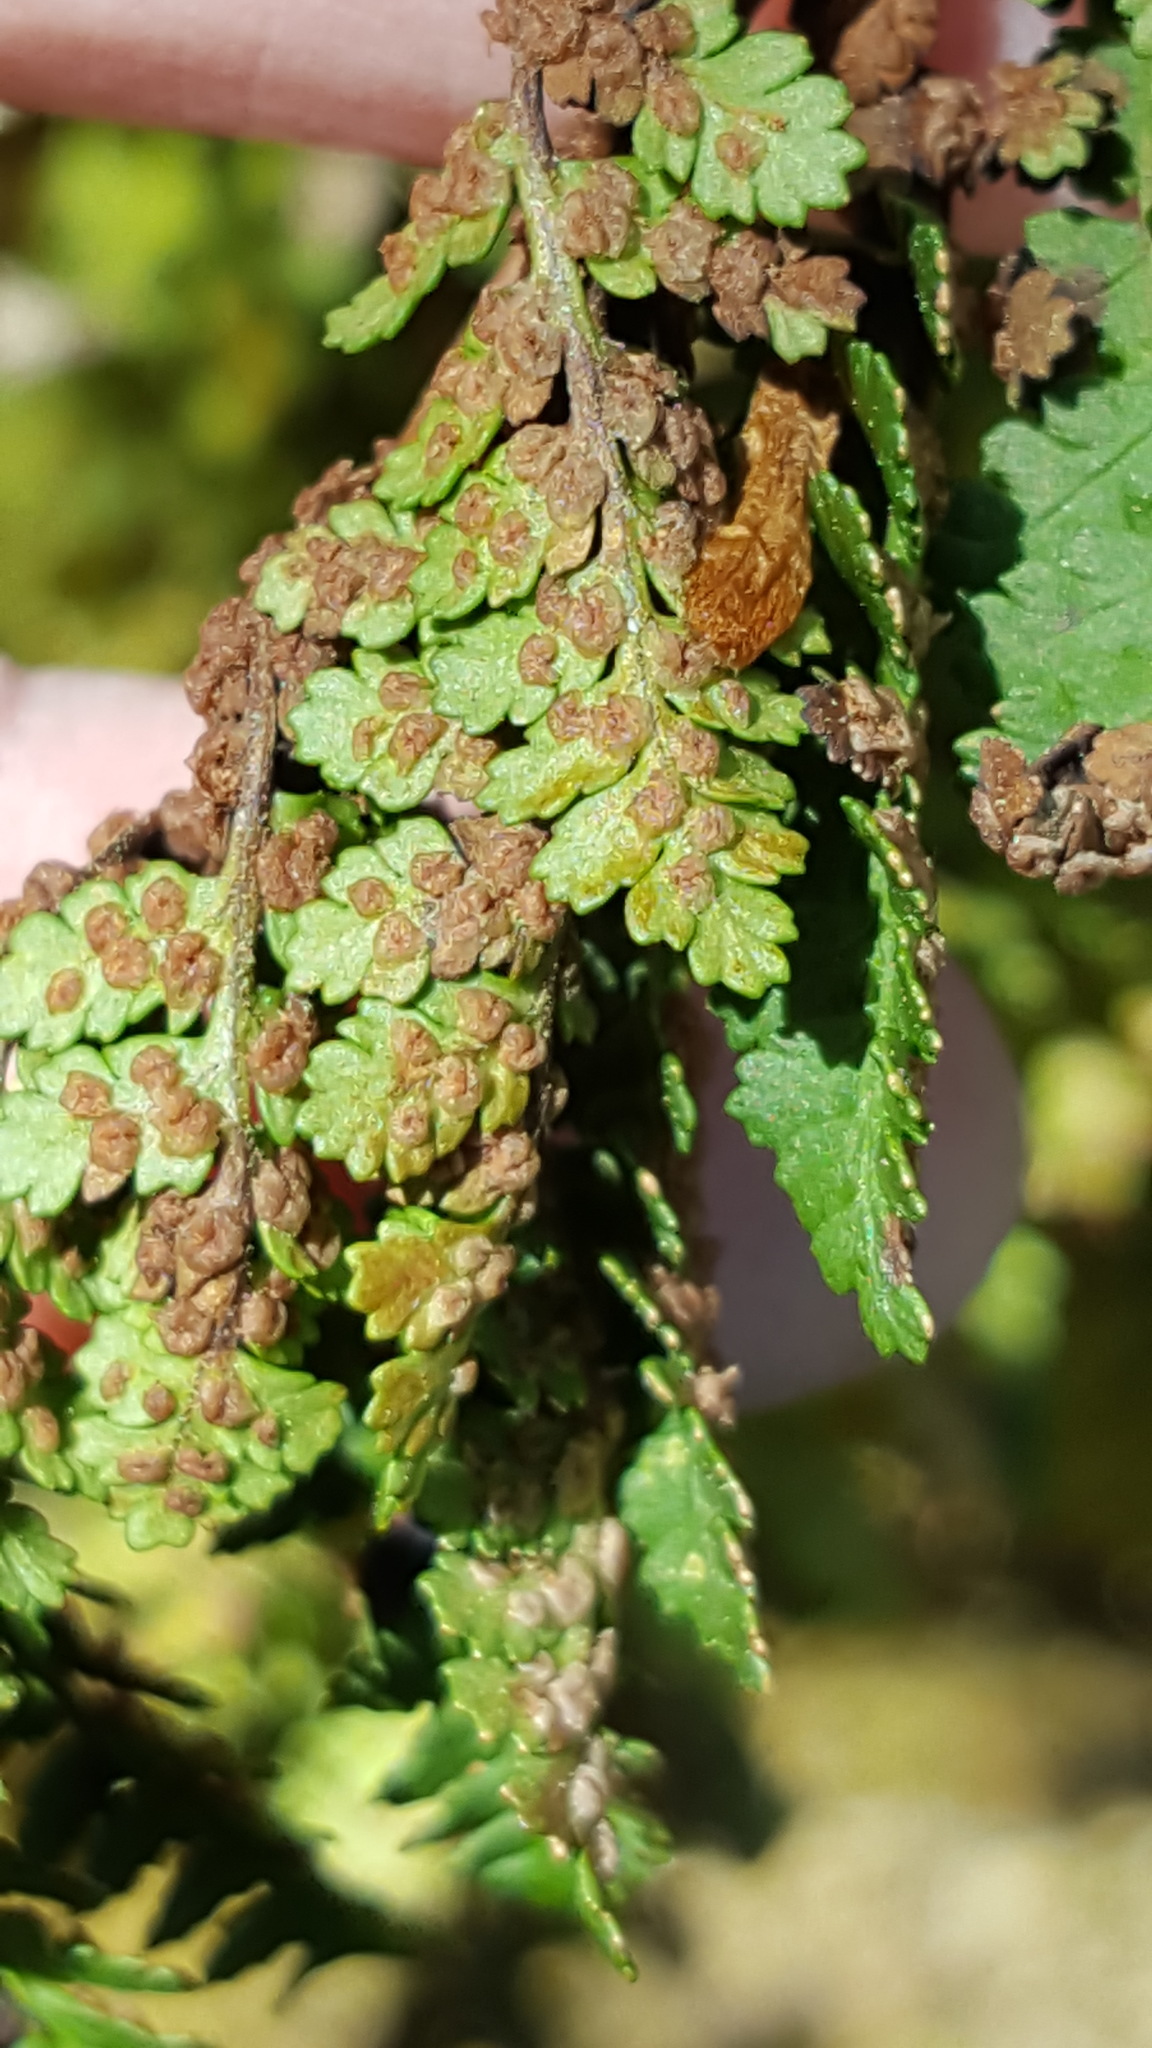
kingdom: Plantae
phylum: Tracheophyta
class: Polypodiopsida
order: Polypodiales
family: Dryopteridaceae
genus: Dryopteris
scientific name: Dryopteris fragrans
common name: Fragrant wood fern
